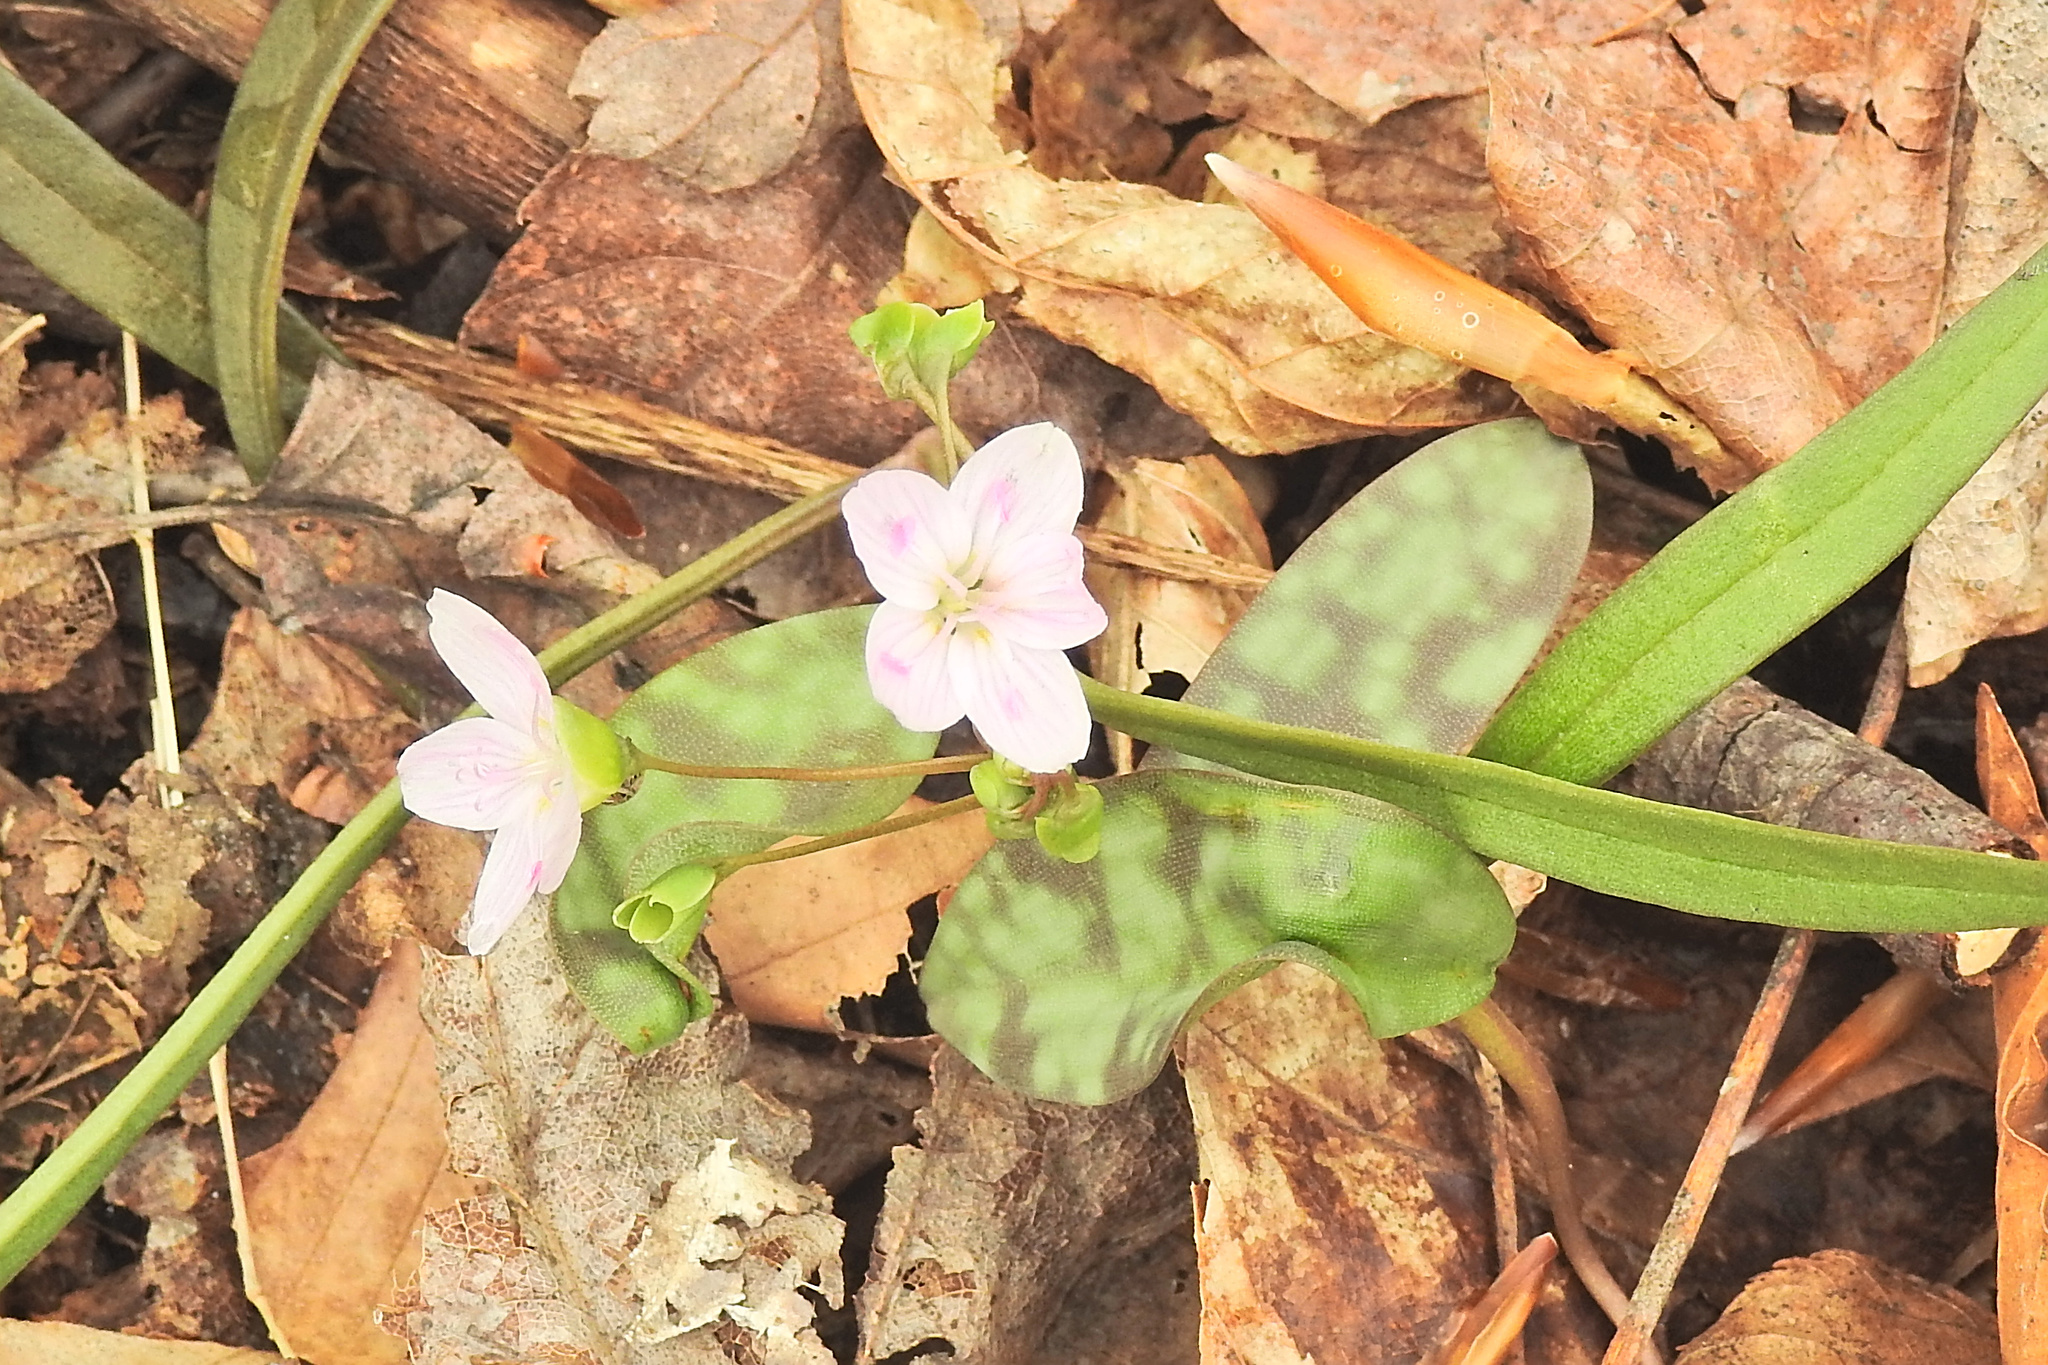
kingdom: Plantae
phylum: Tracheophyta
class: Magnoliopsida
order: Caryophyllales
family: Montiaceae
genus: Claytonia
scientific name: Claytonia virginica
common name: Virginia springbeauty
